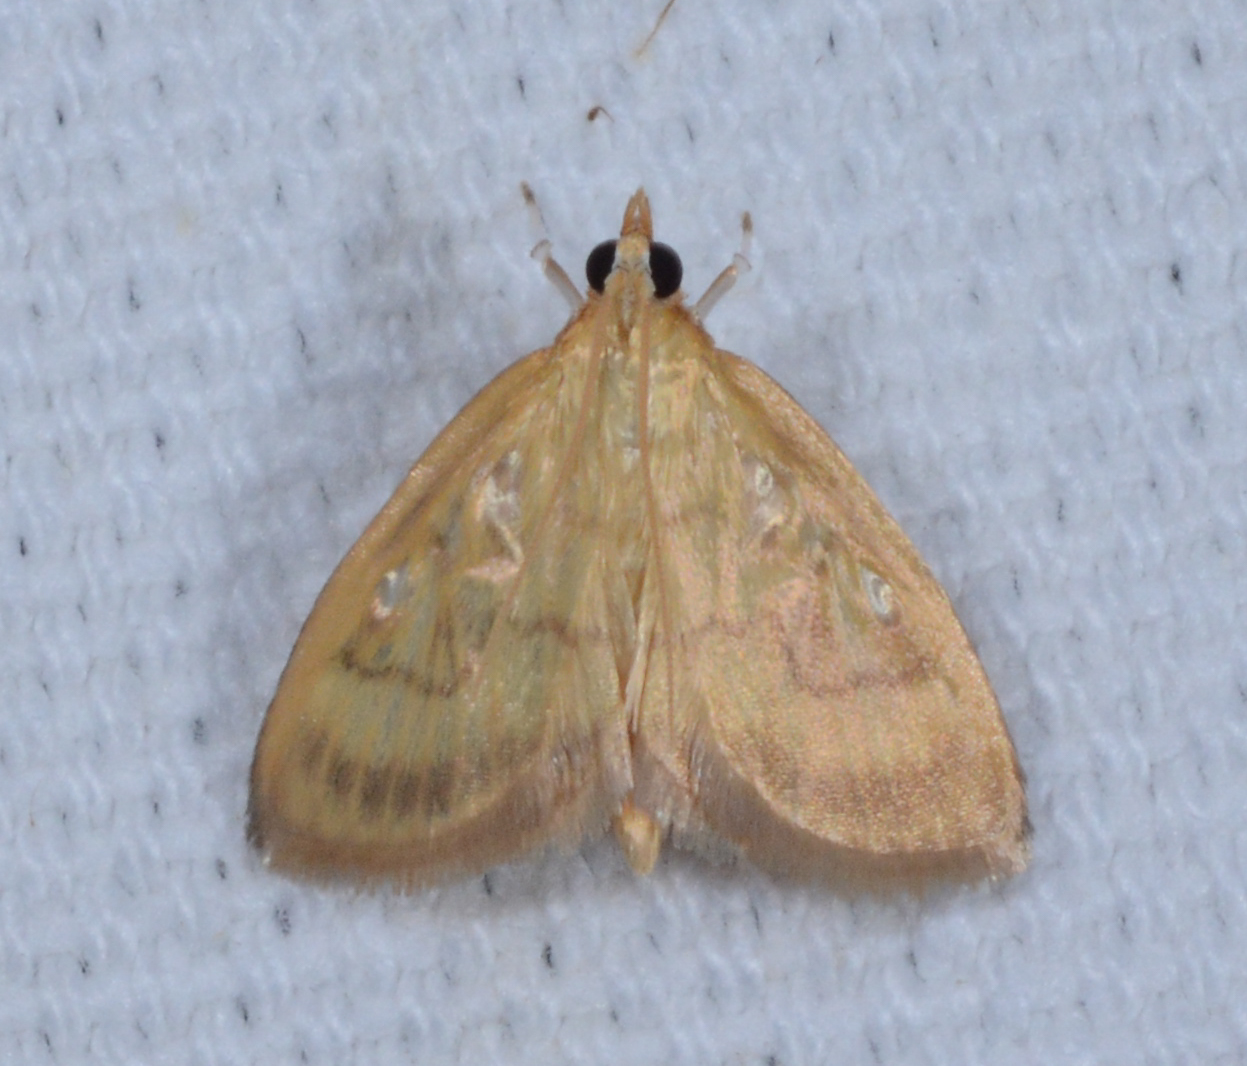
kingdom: Animalia
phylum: Arthropoda
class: Insecta
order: Lepidoptera
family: Crambidae
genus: Crocidophora
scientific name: Crocidophora tuberculalis
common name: Pale-winged crocidiphora moth
